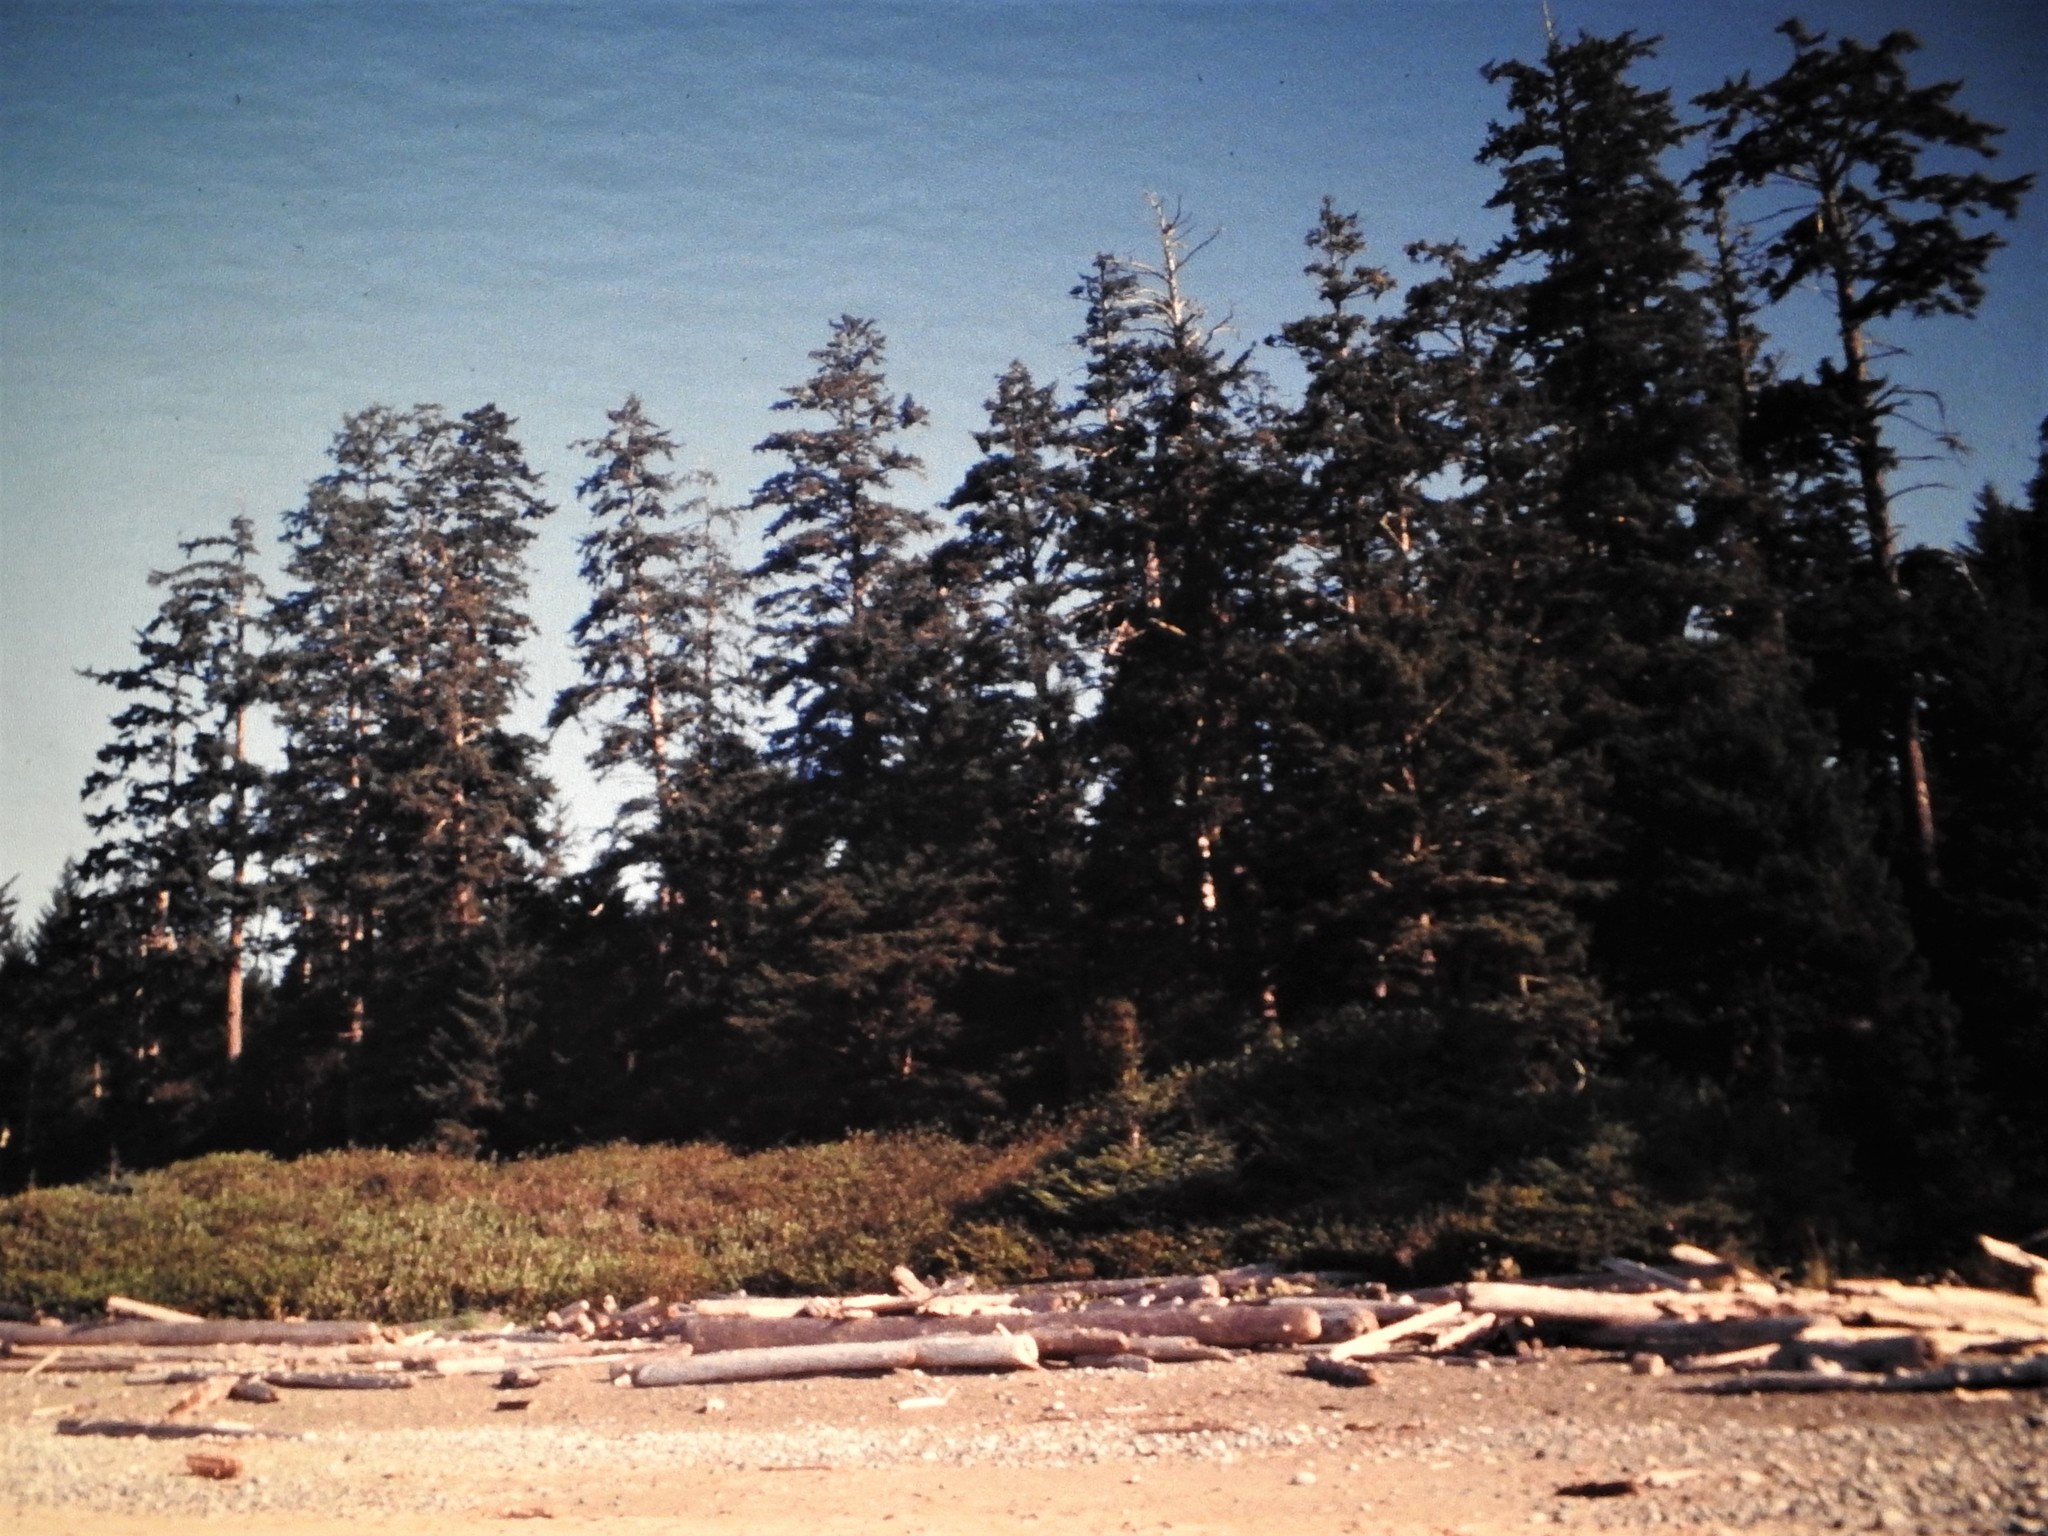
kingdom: Plantae
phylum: Tracheophyta
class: Pinopsida
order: Pinales
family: Pinaceae
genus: Picea
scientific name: Picea sitchensis
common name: Sitka spruce
